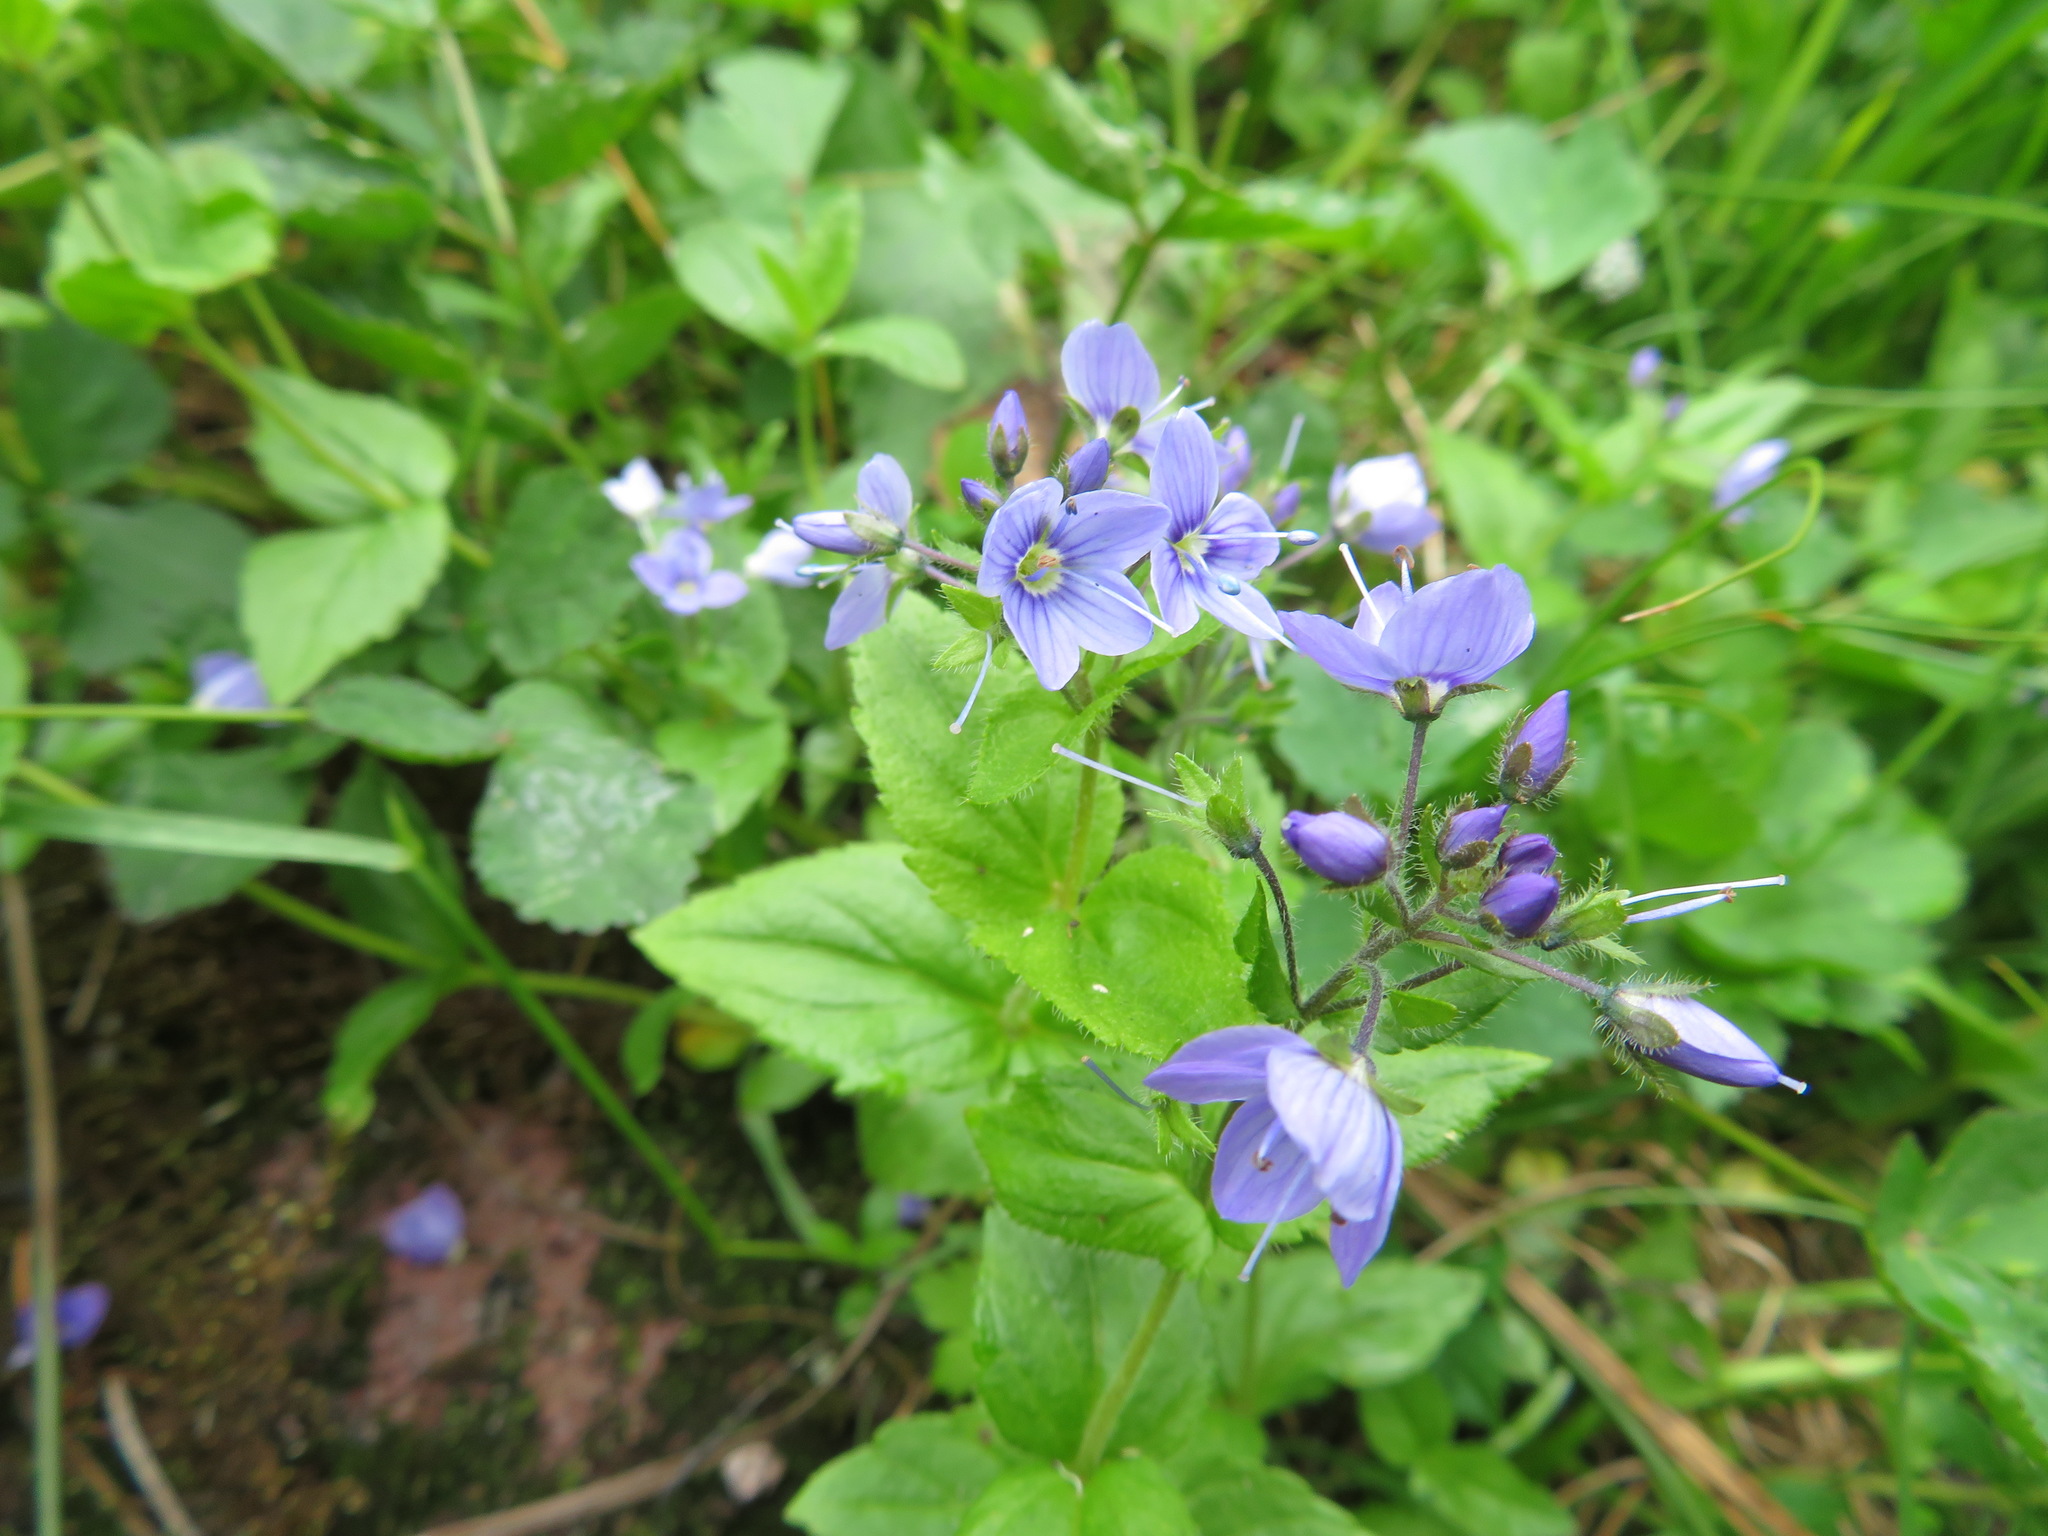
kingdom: Plantae
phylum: Tracheophyta
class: Magnoliopsida
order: Lamiales
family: Plantaginaceae
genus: Veronica
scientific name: Veronica stelleri
